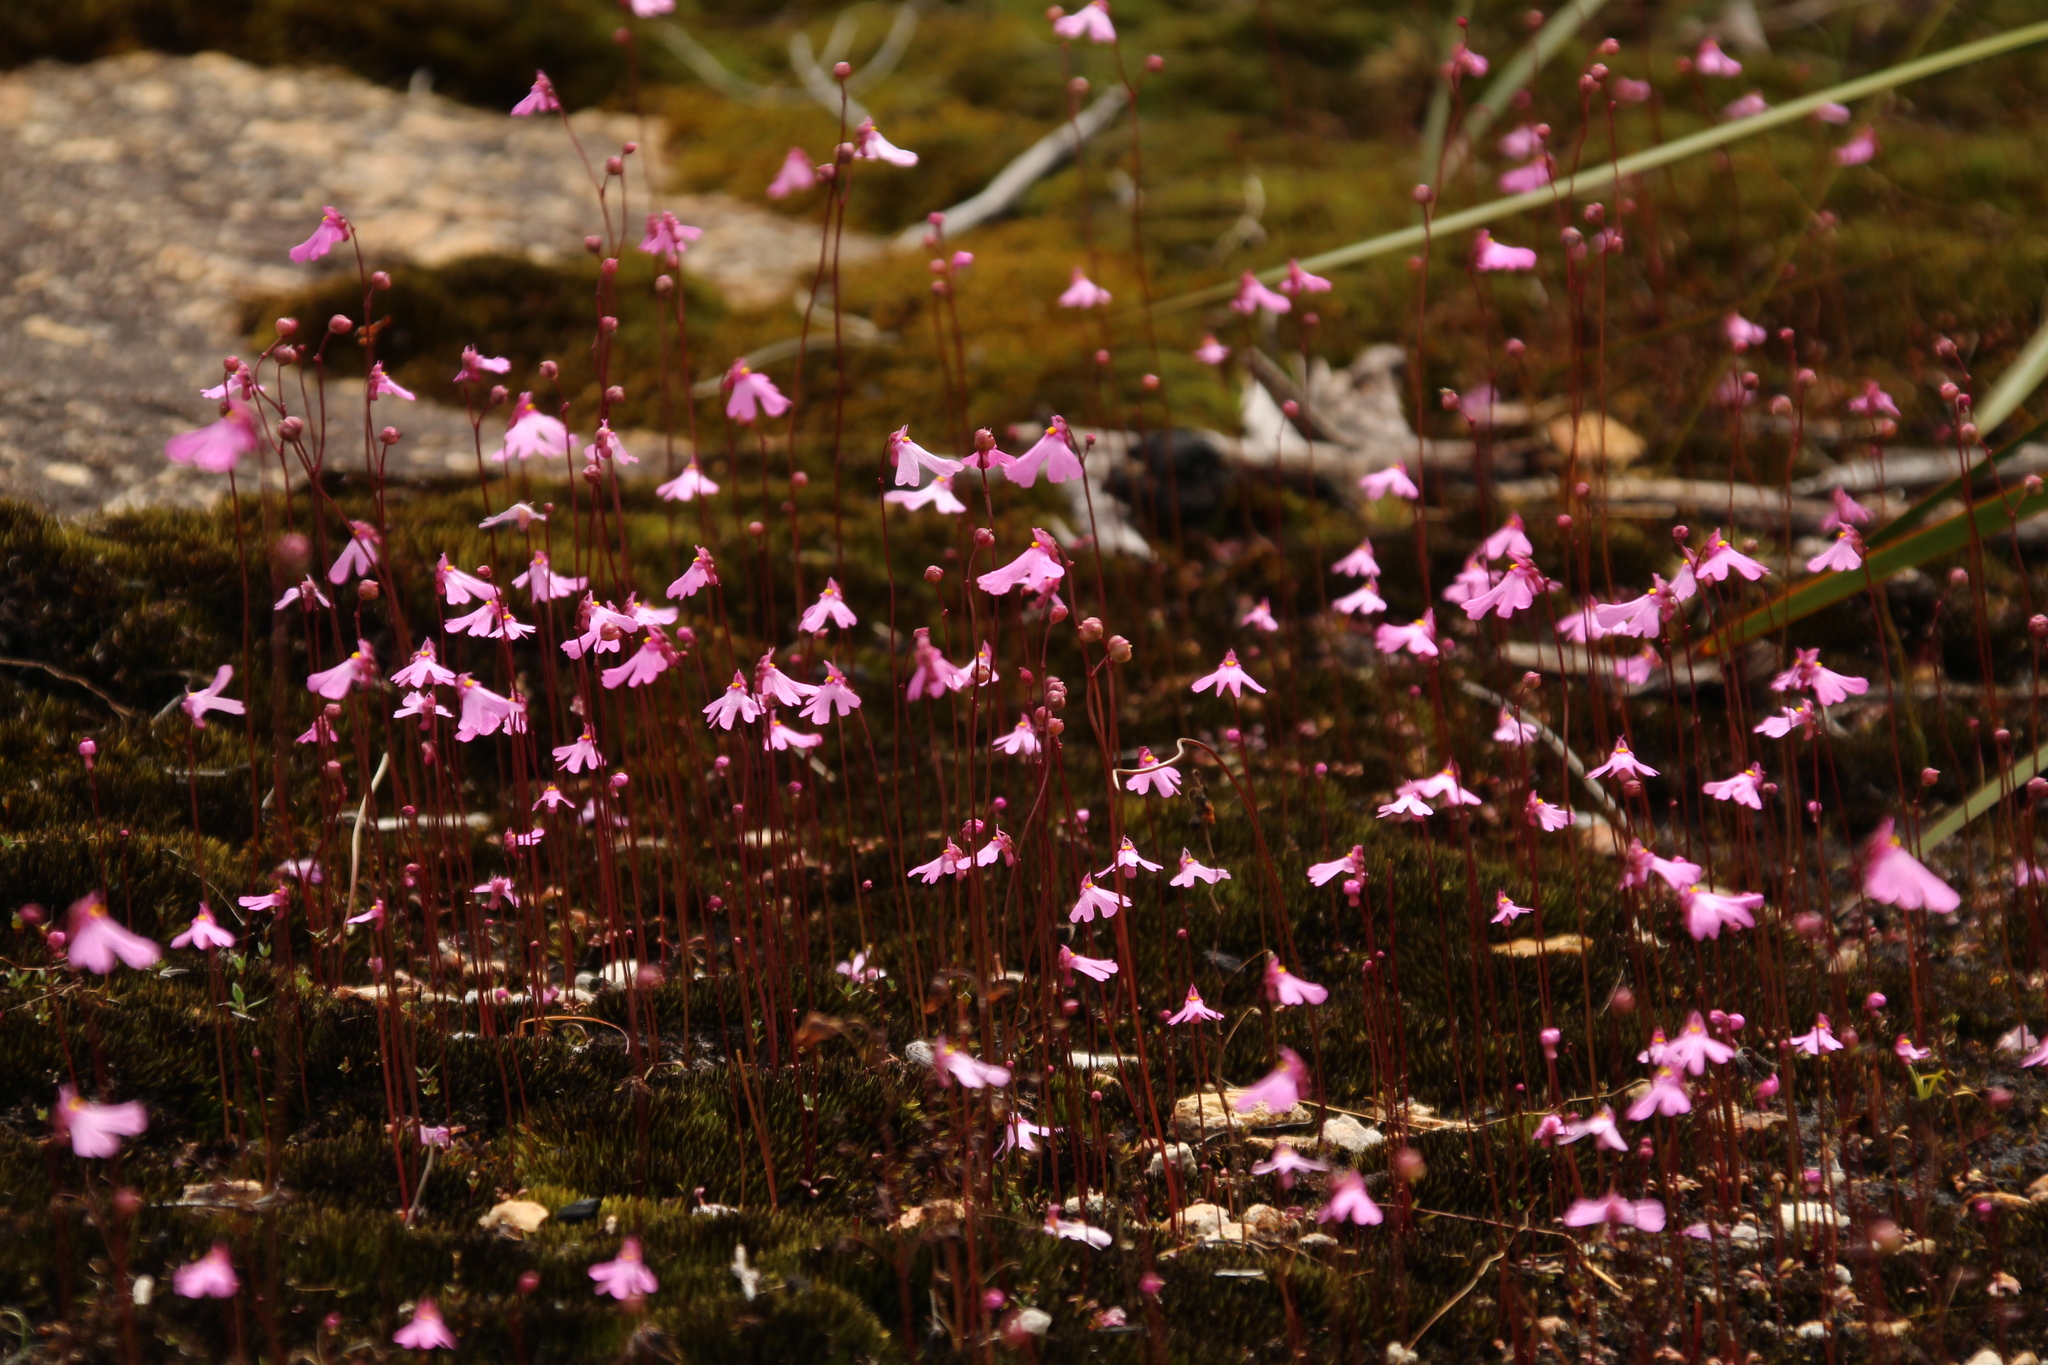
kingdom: Plantae
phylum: Tracheophyta
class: Magnoliopsida
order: Lamiales
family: Lentibulariaceae
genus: Utricularia
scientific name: Utricularia multifida
